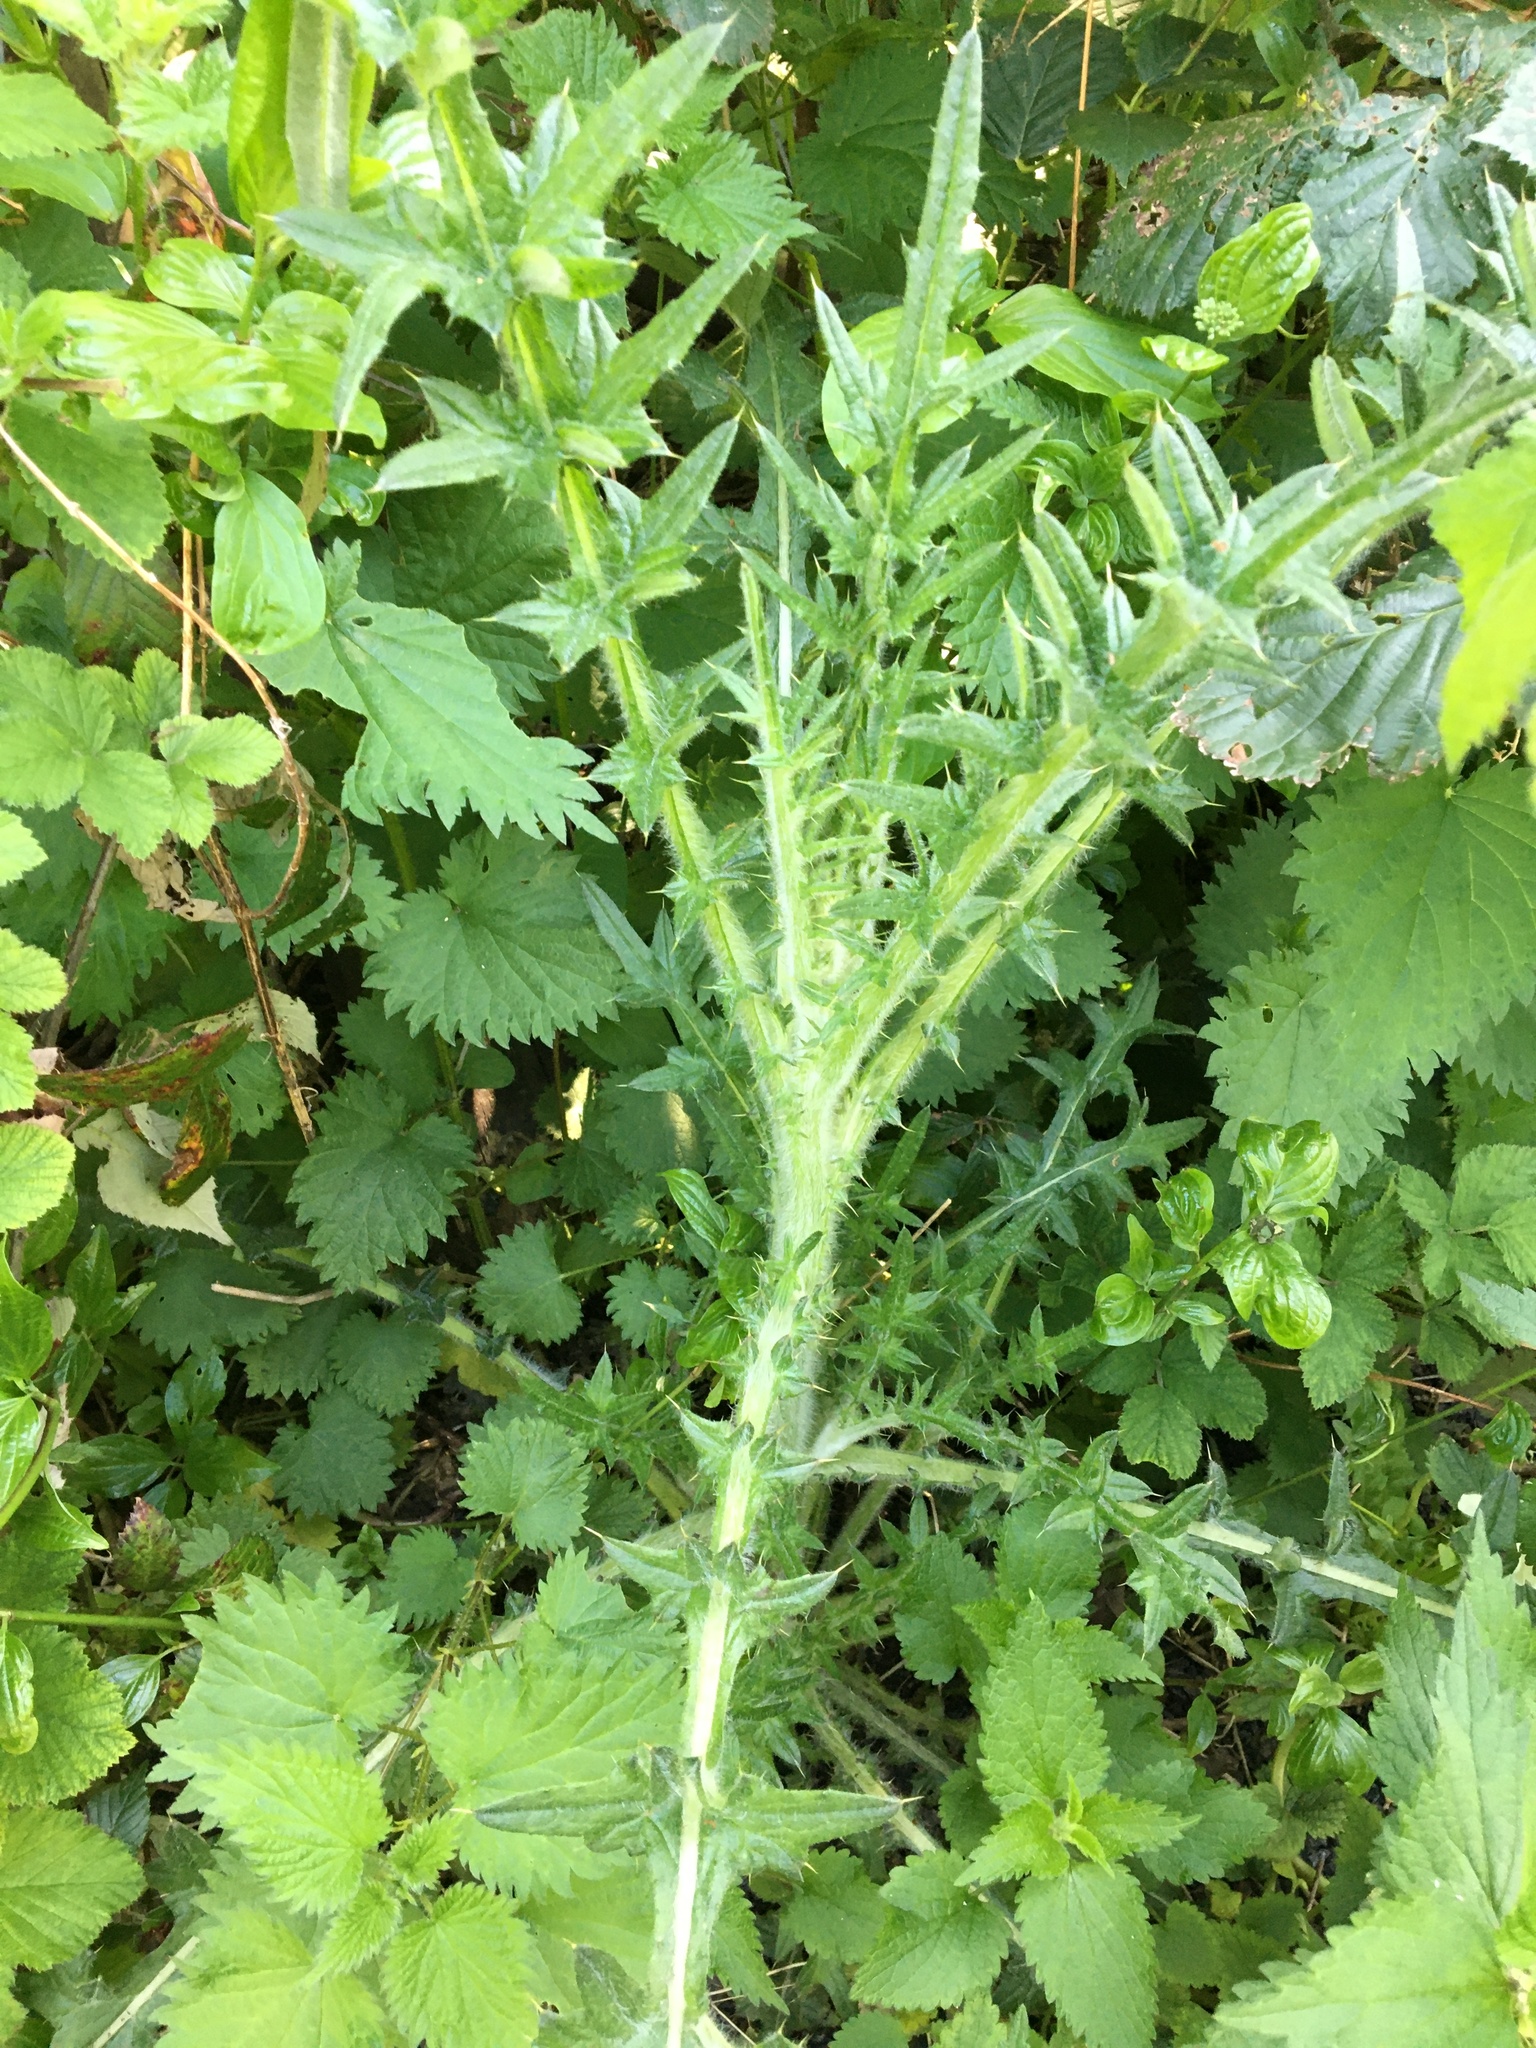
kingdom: Plantae
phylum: Tracheophyta
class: Magnoliopsida
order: Asterales
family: Asteraceae
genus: Cirsium
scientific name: Cirsium vulgare
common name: Bull thistle
